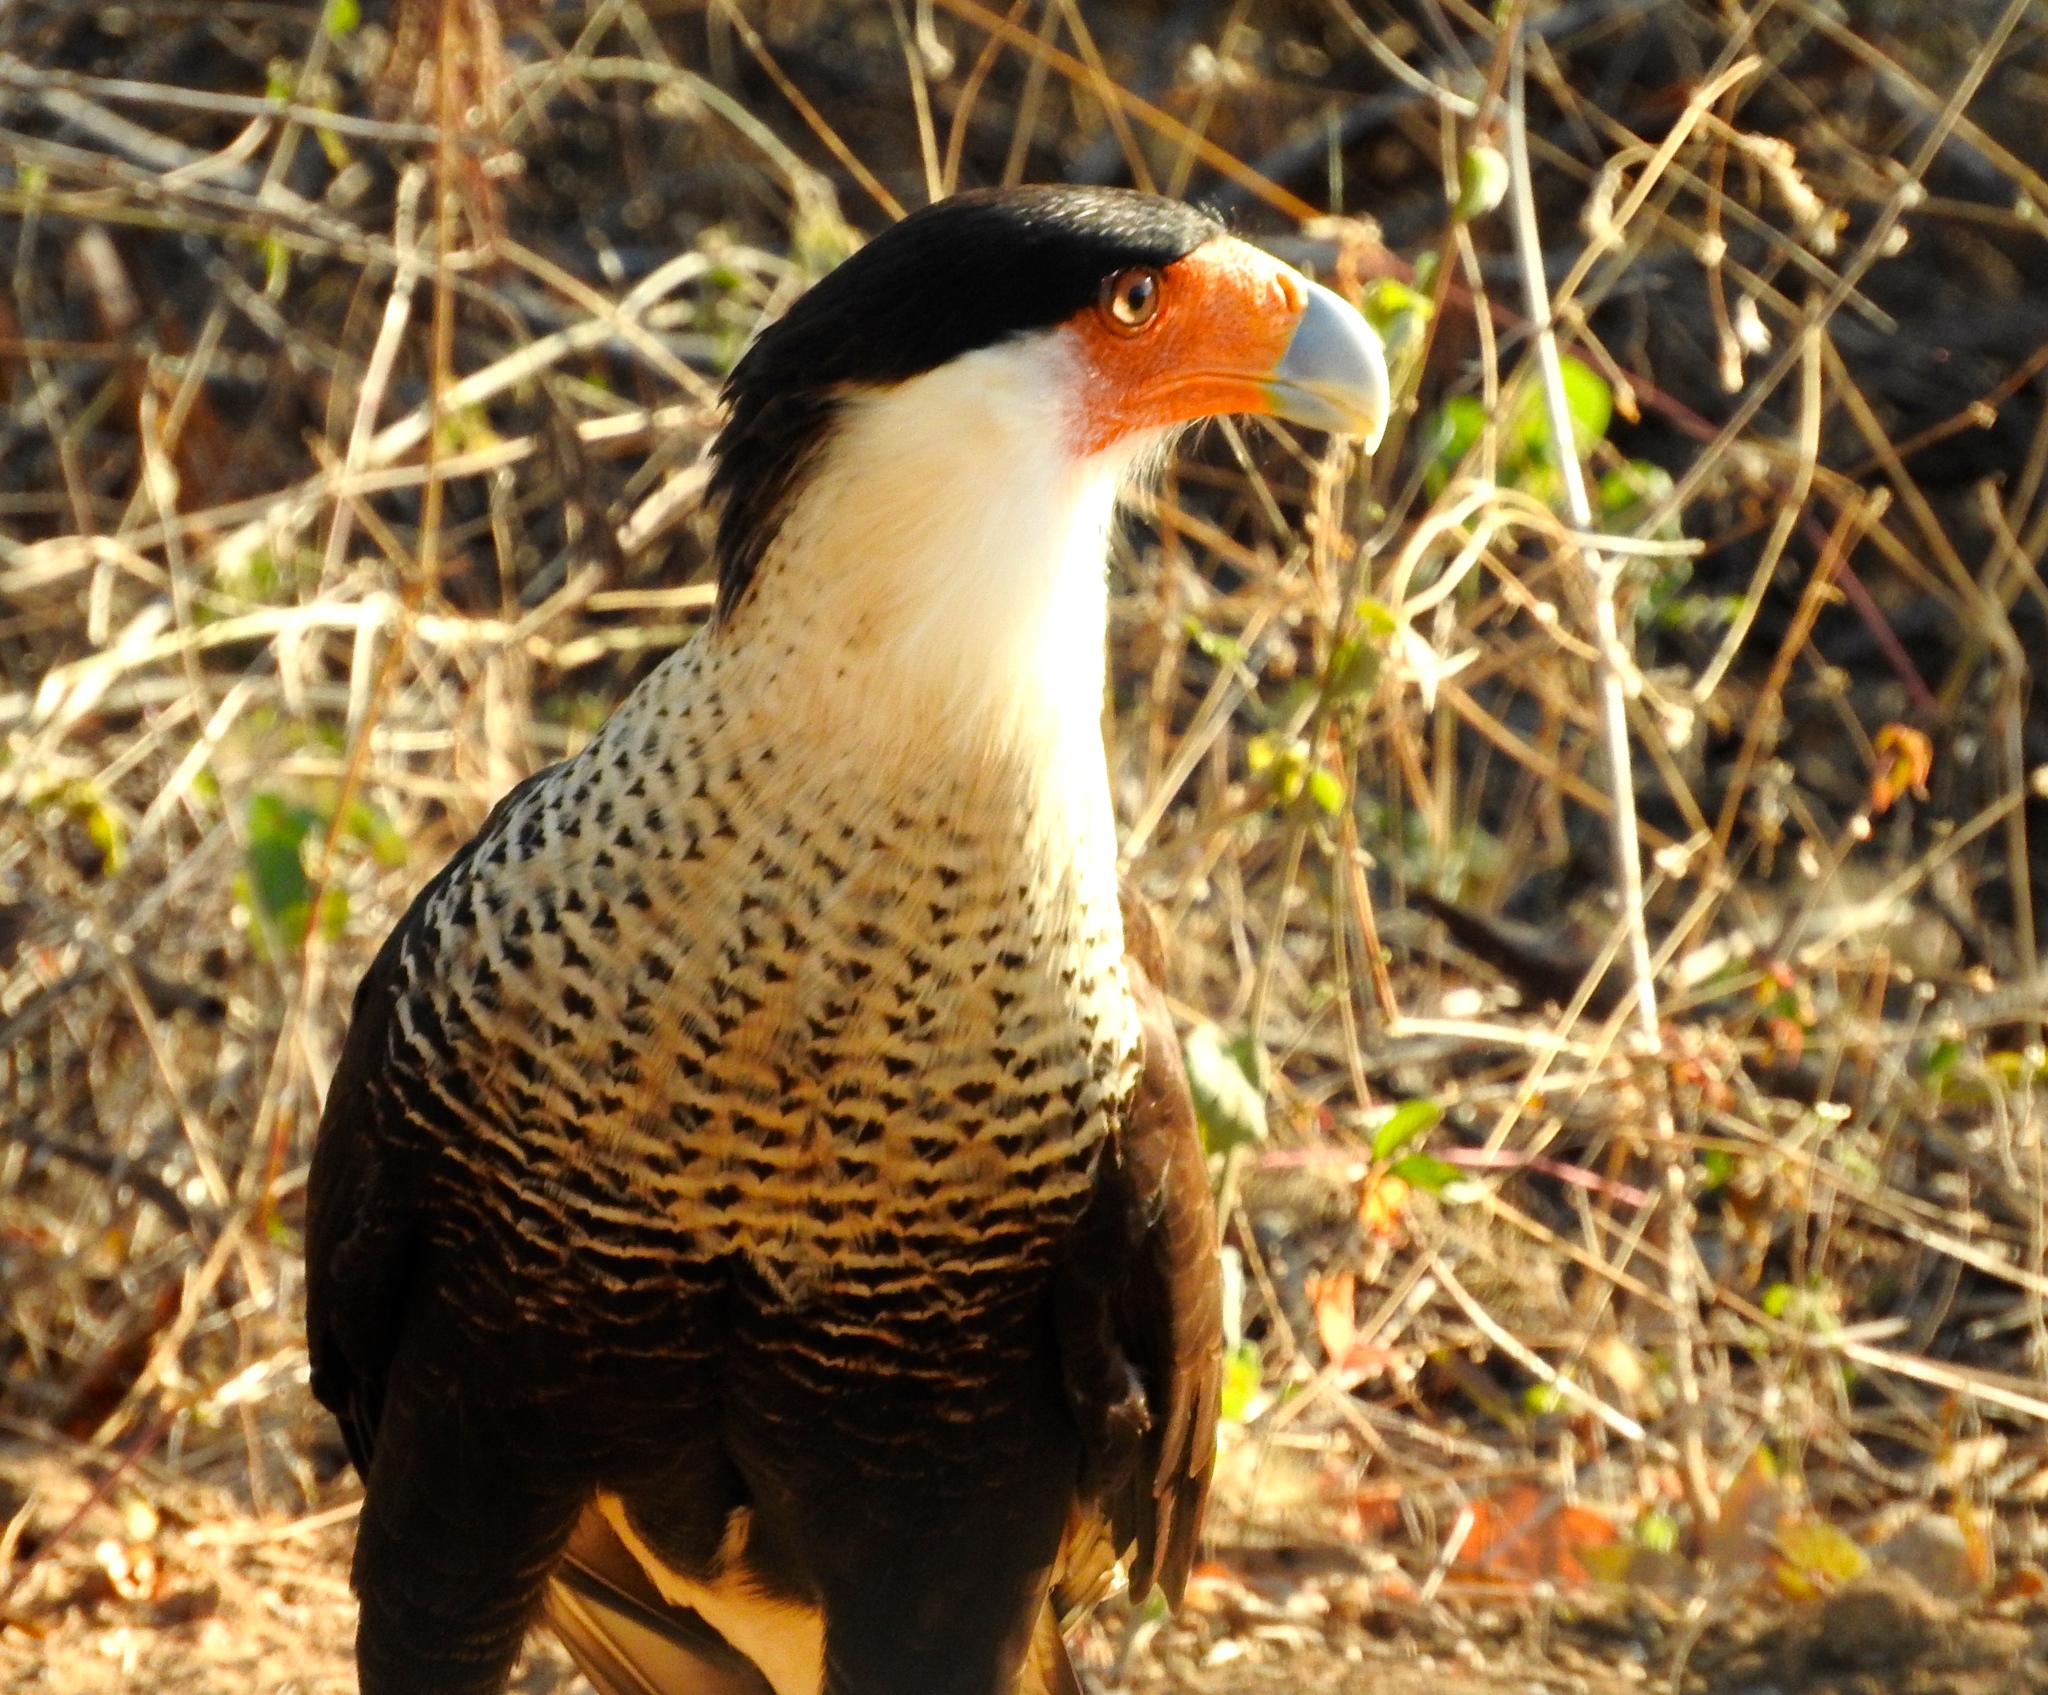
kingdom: Animalia
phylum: Chordata
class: Aves
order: Falconiformes
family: Falconidae
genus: Caracara
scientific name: Caracara plancus
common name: Southern caracara
